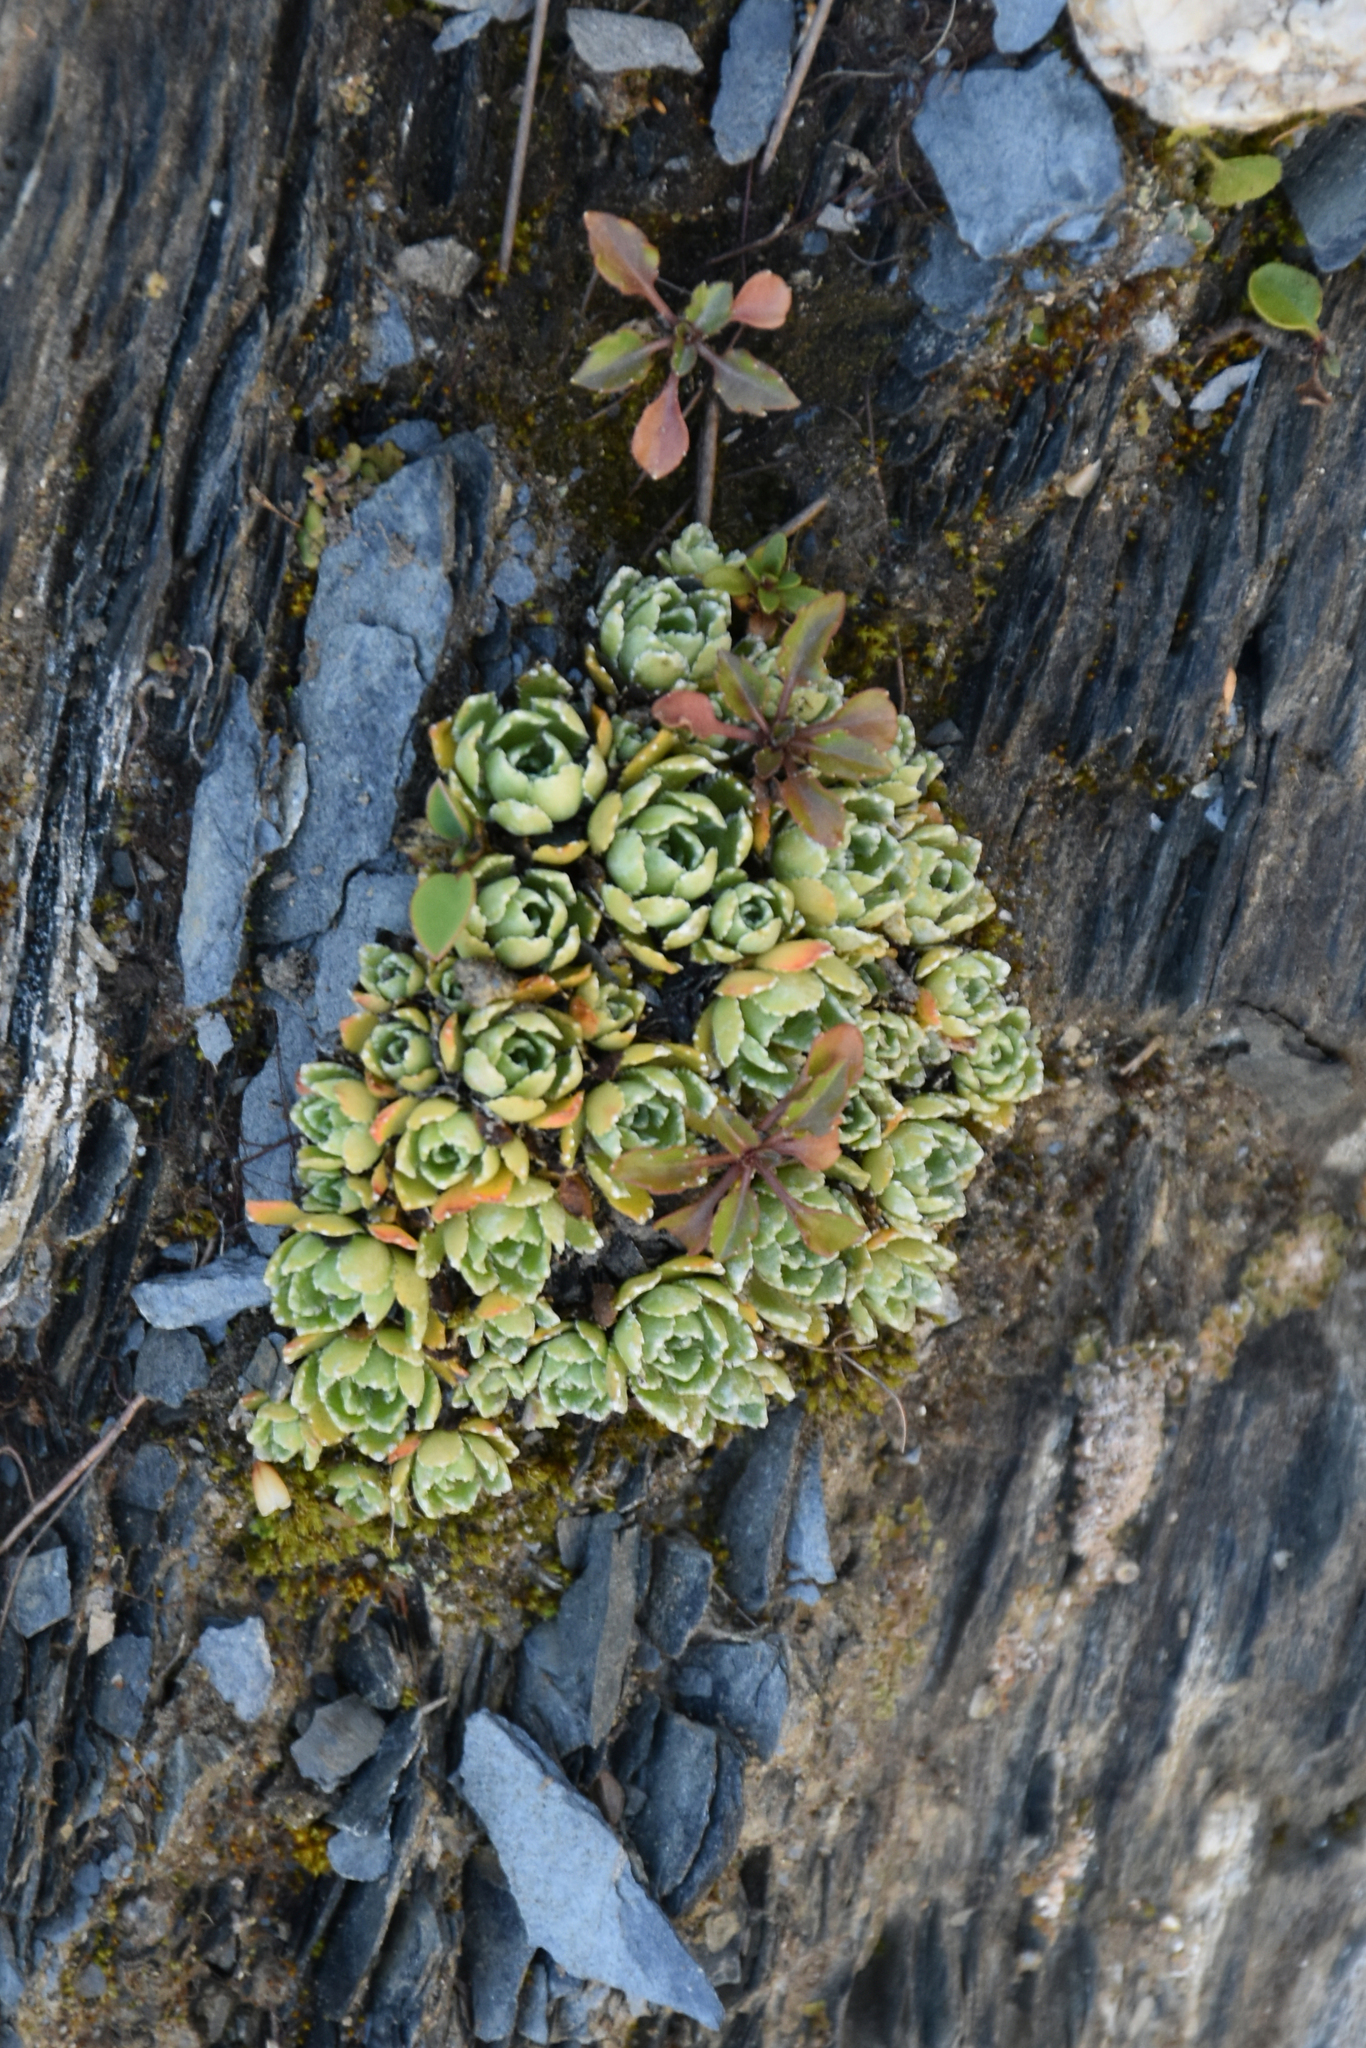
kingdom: Plantae
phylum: Tracheophyta
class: Magnoliopsida
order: Saxifragales
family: Saxifragaceae
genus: Saxifraga
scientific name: Saxifraga paniculata
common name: Livelong saxifrage
